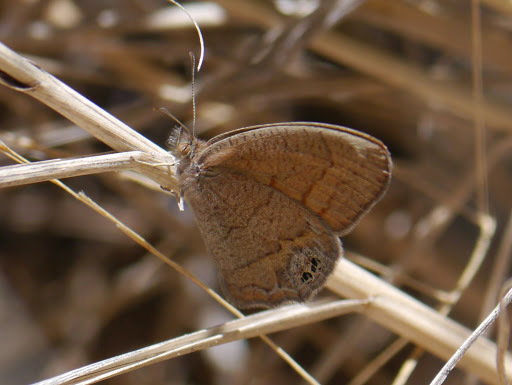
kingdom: Animalia
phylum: Arthropoda
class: Insecta
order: Lepidoptera
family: Nymphalidae
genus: Euptychia
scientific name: Euptychia pyracmon
